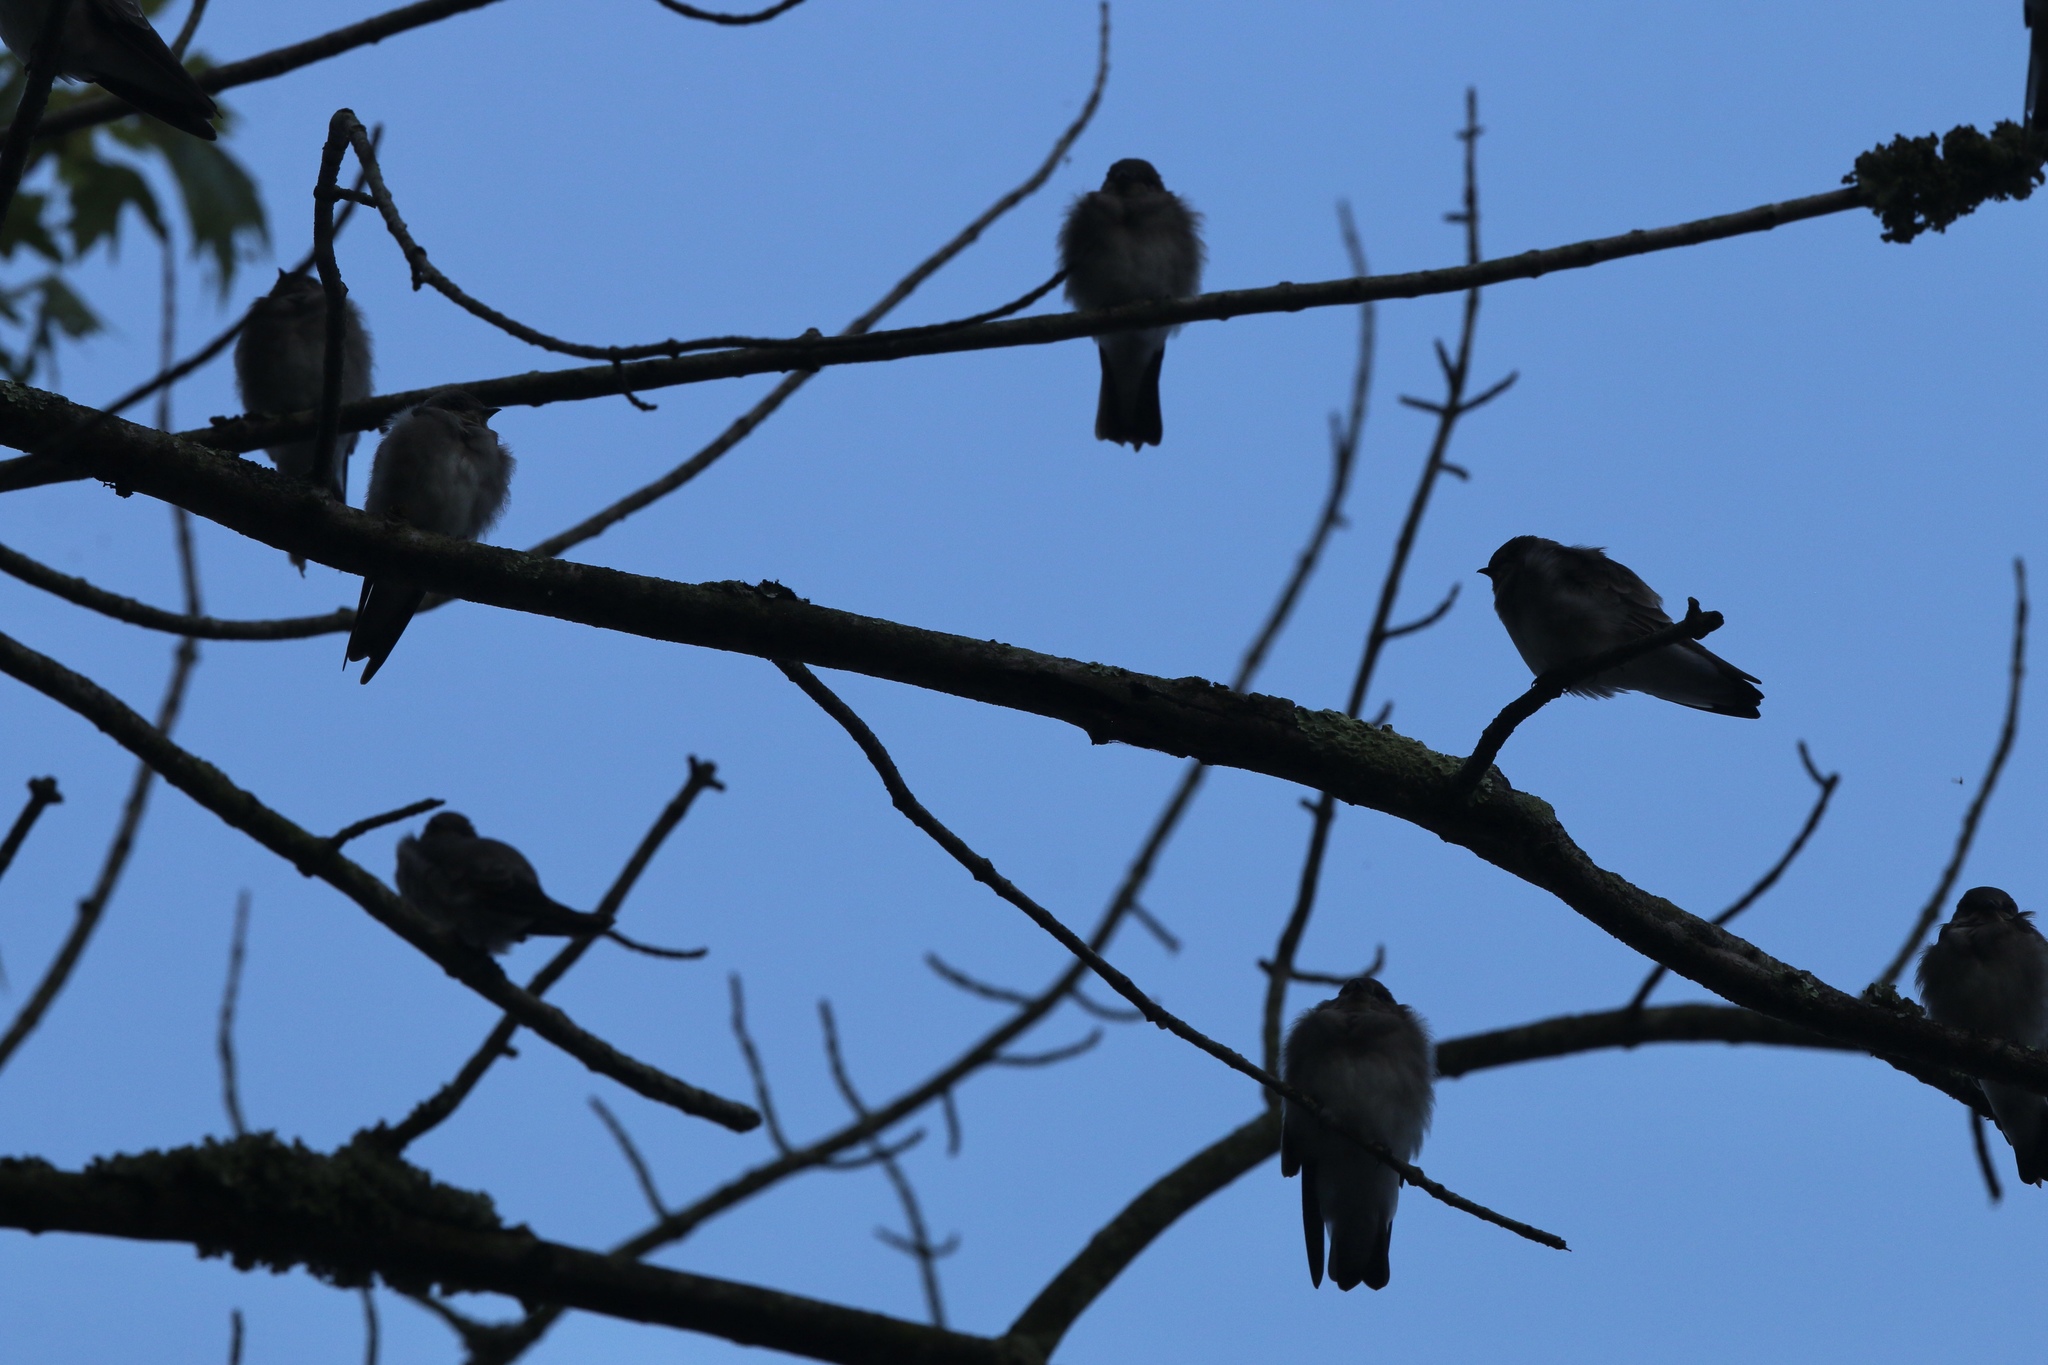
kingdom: Animalia
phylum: Chordata
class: Aves
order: Passeriformes
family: Hirundinidae
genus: Stelgidopteryx
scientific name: Stelgidopteryx serripennis
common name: Northern rough-winged swallow
